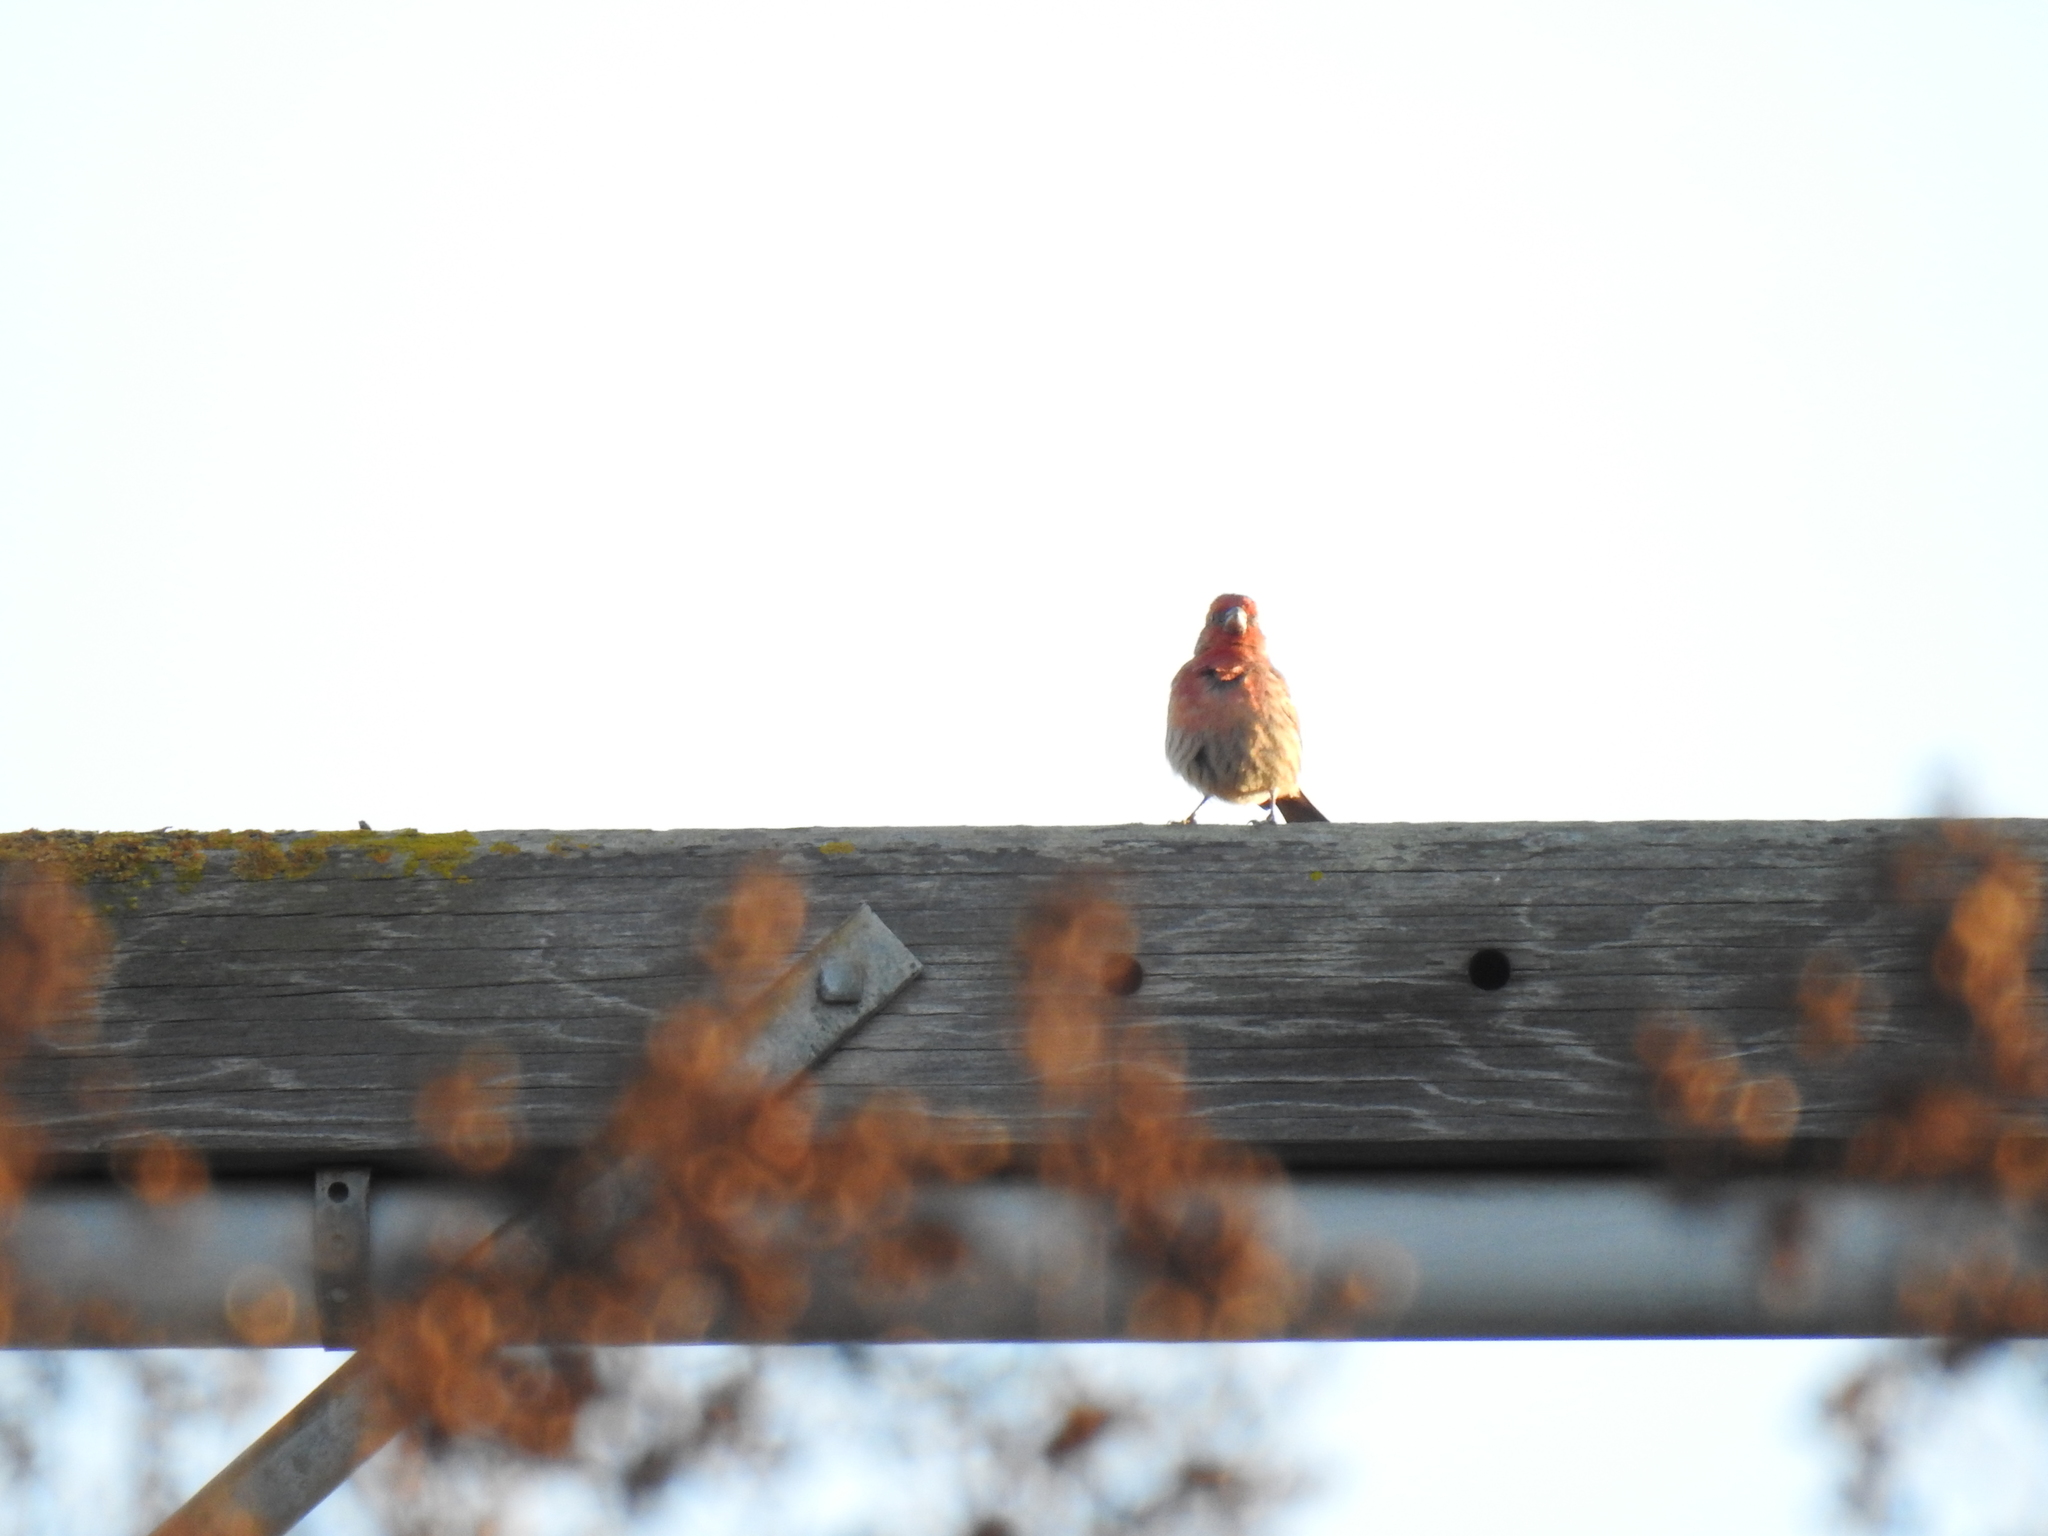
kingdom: Animalia
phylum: Chordata
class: Aves
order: Passeriformes
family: Fringillidae
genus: Haemorhous
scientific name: Haemorhous mexicanus
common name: House finch
